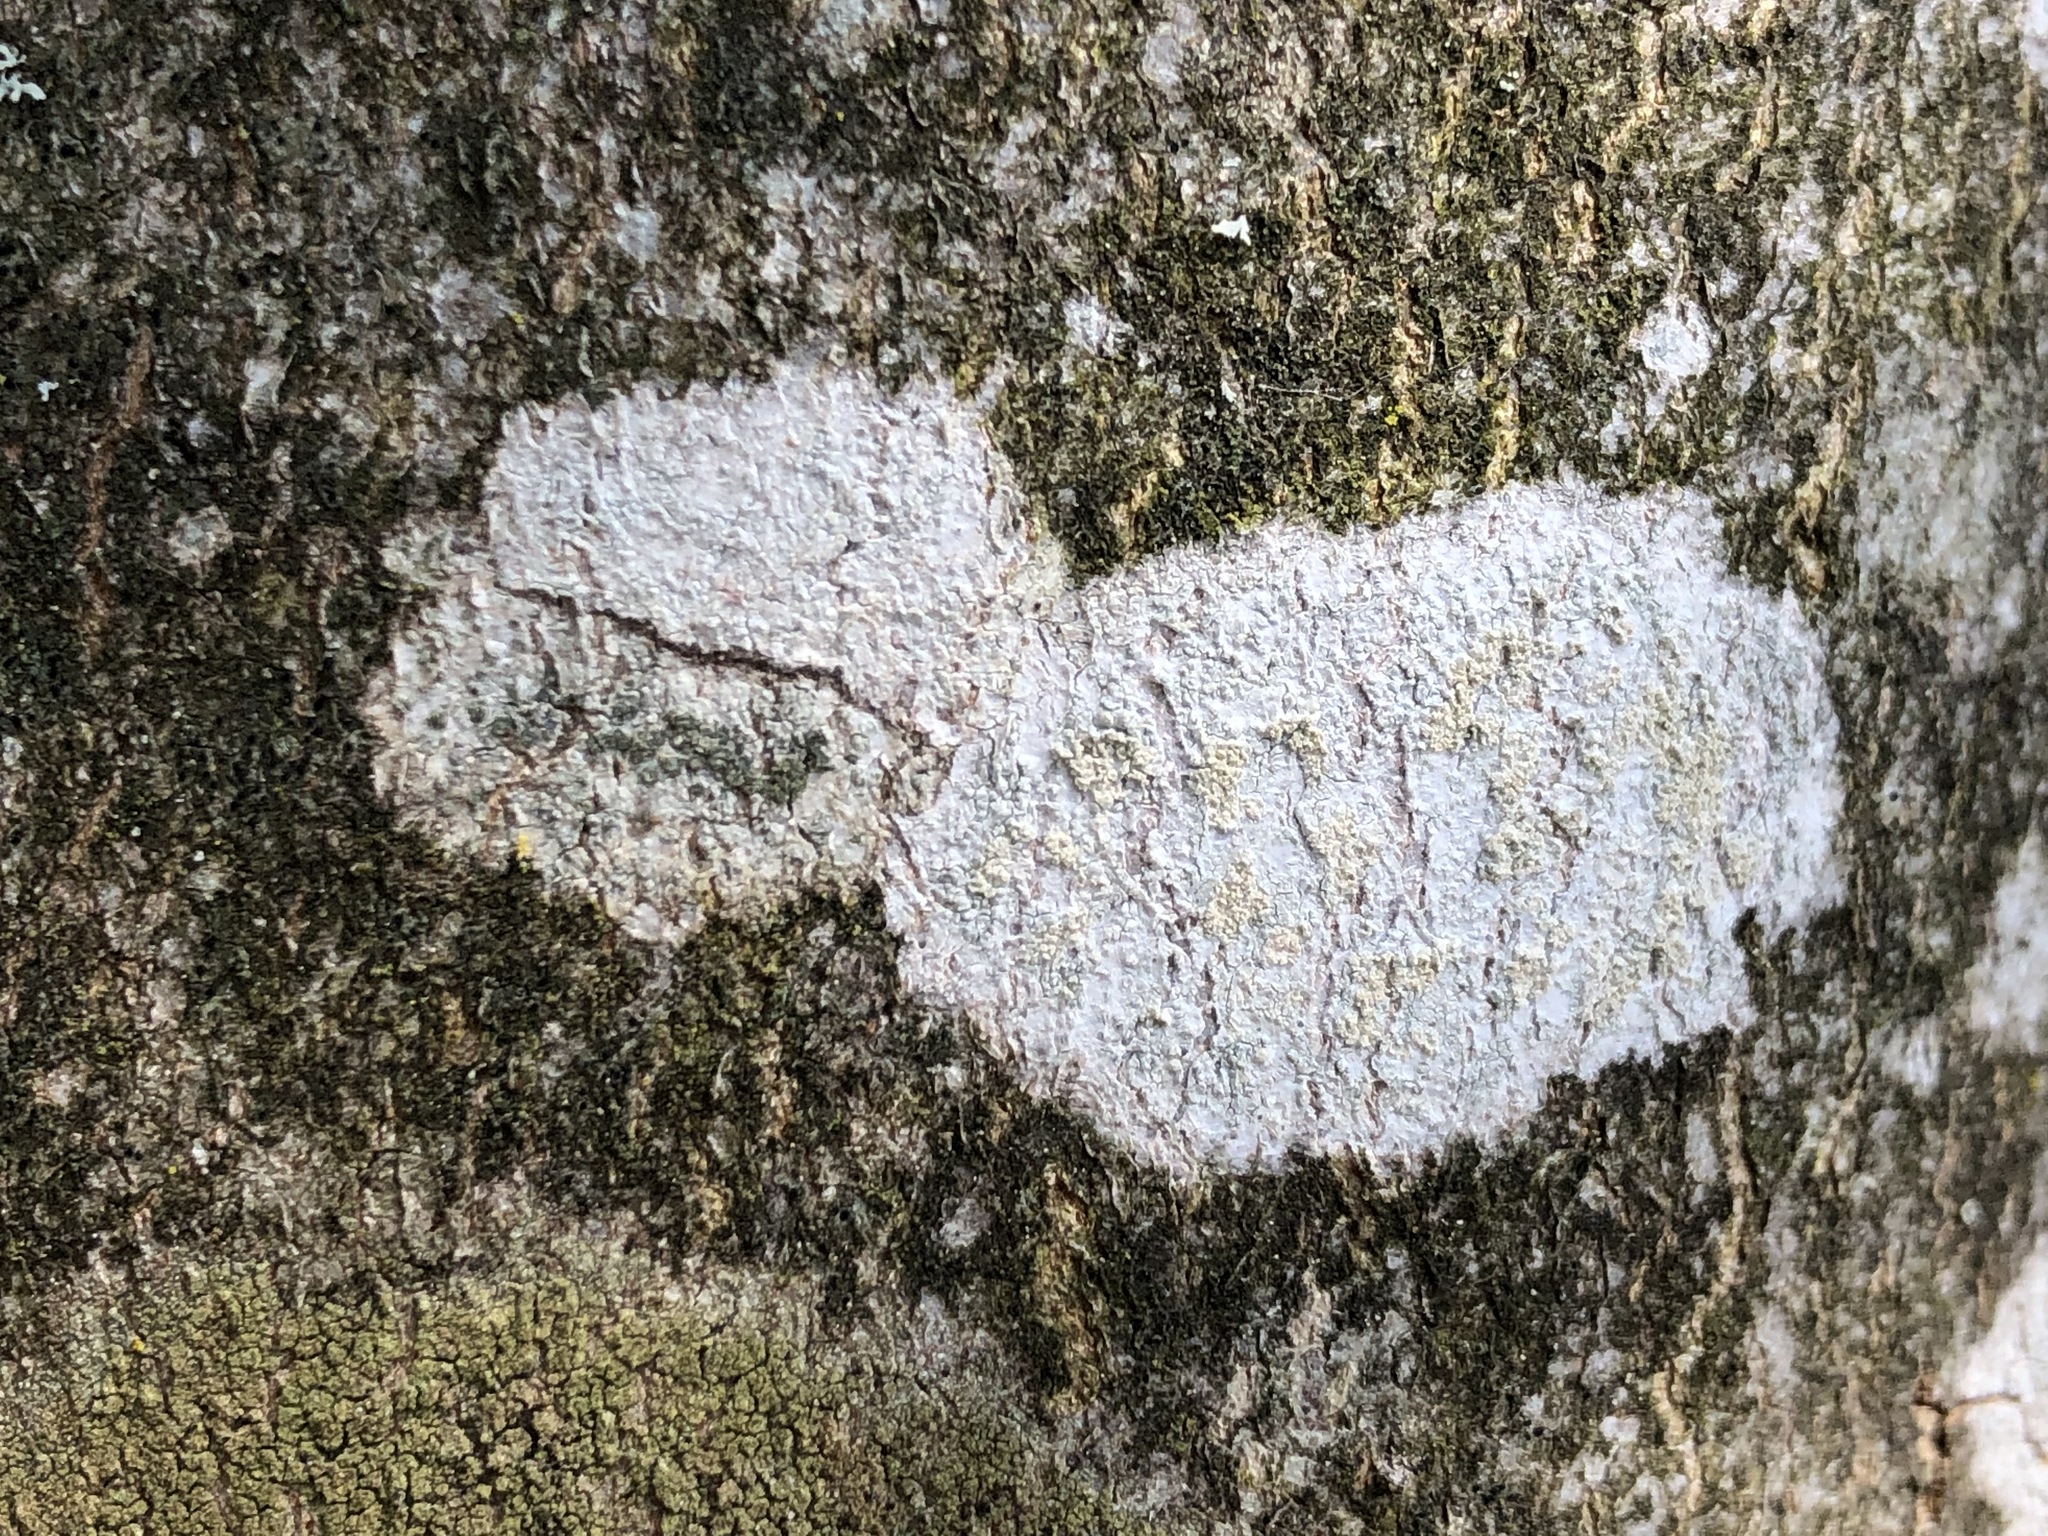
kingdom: Fungi
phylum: Ascomycota
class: Lecanoromycetes
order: Ostropales
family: Phlyctidaceae
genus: Phlyctis
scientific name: Phlyctis argena
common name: Whitewash lichen
